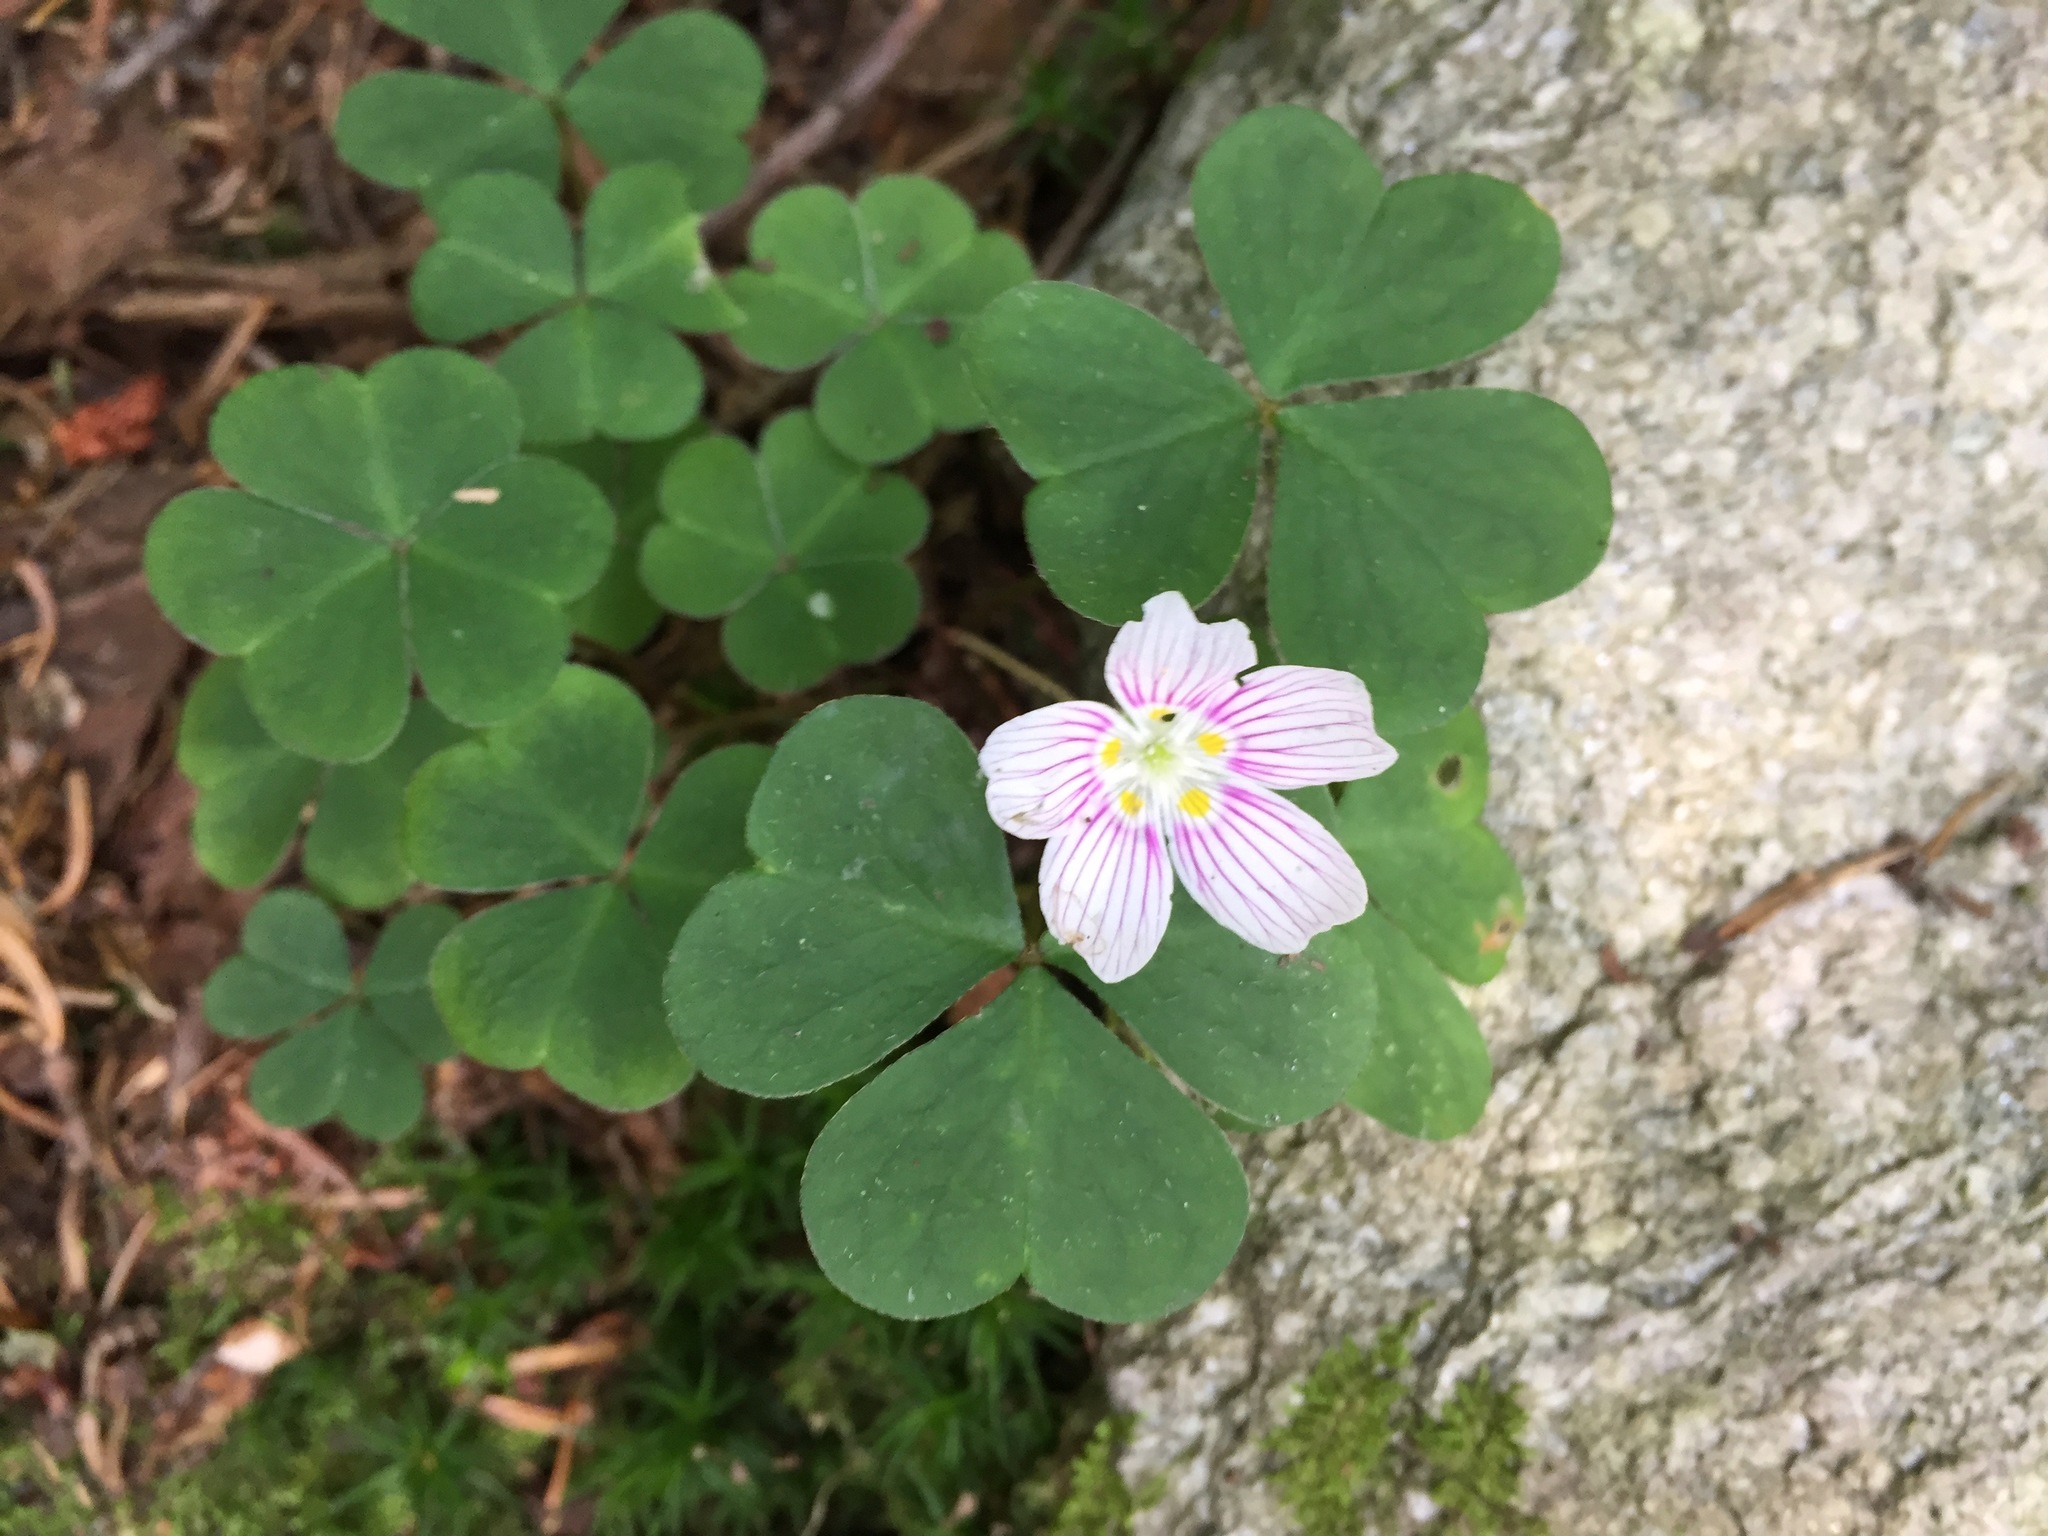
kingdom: Plantae
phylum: Tracheophyta
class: Magnoliopsida
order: Oxalidales
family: Oxalidaceae
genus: Oxalis
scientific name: Oxalis montana
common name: American wood-sorrel
